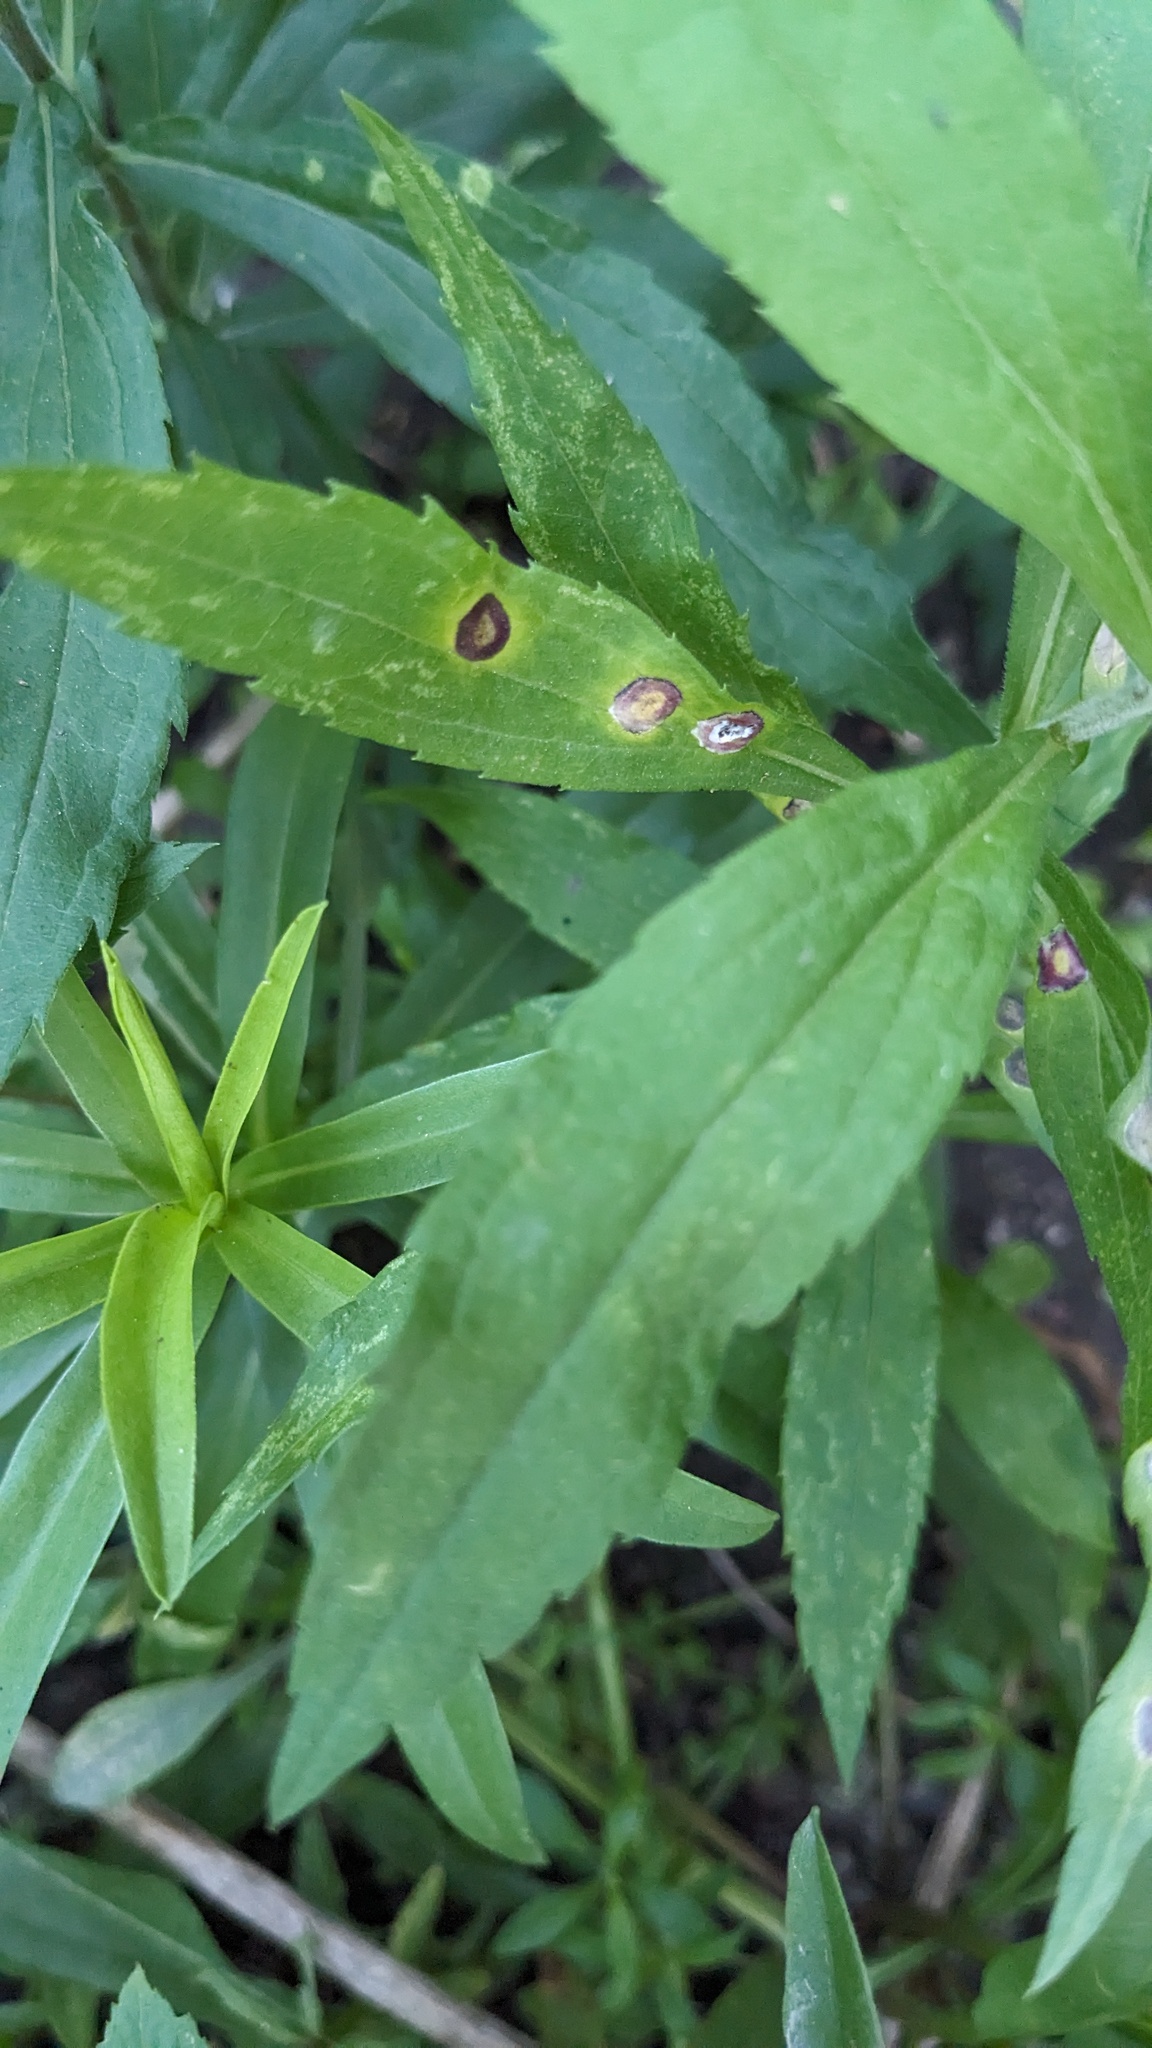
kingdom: Animalia
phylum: Arthropoda
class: Insecta
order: Diptera
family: Cecidomyiidae
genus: Asteromyia
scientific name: Asteromyia carbonifera
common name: Carbonifera goldenrod gall midge
